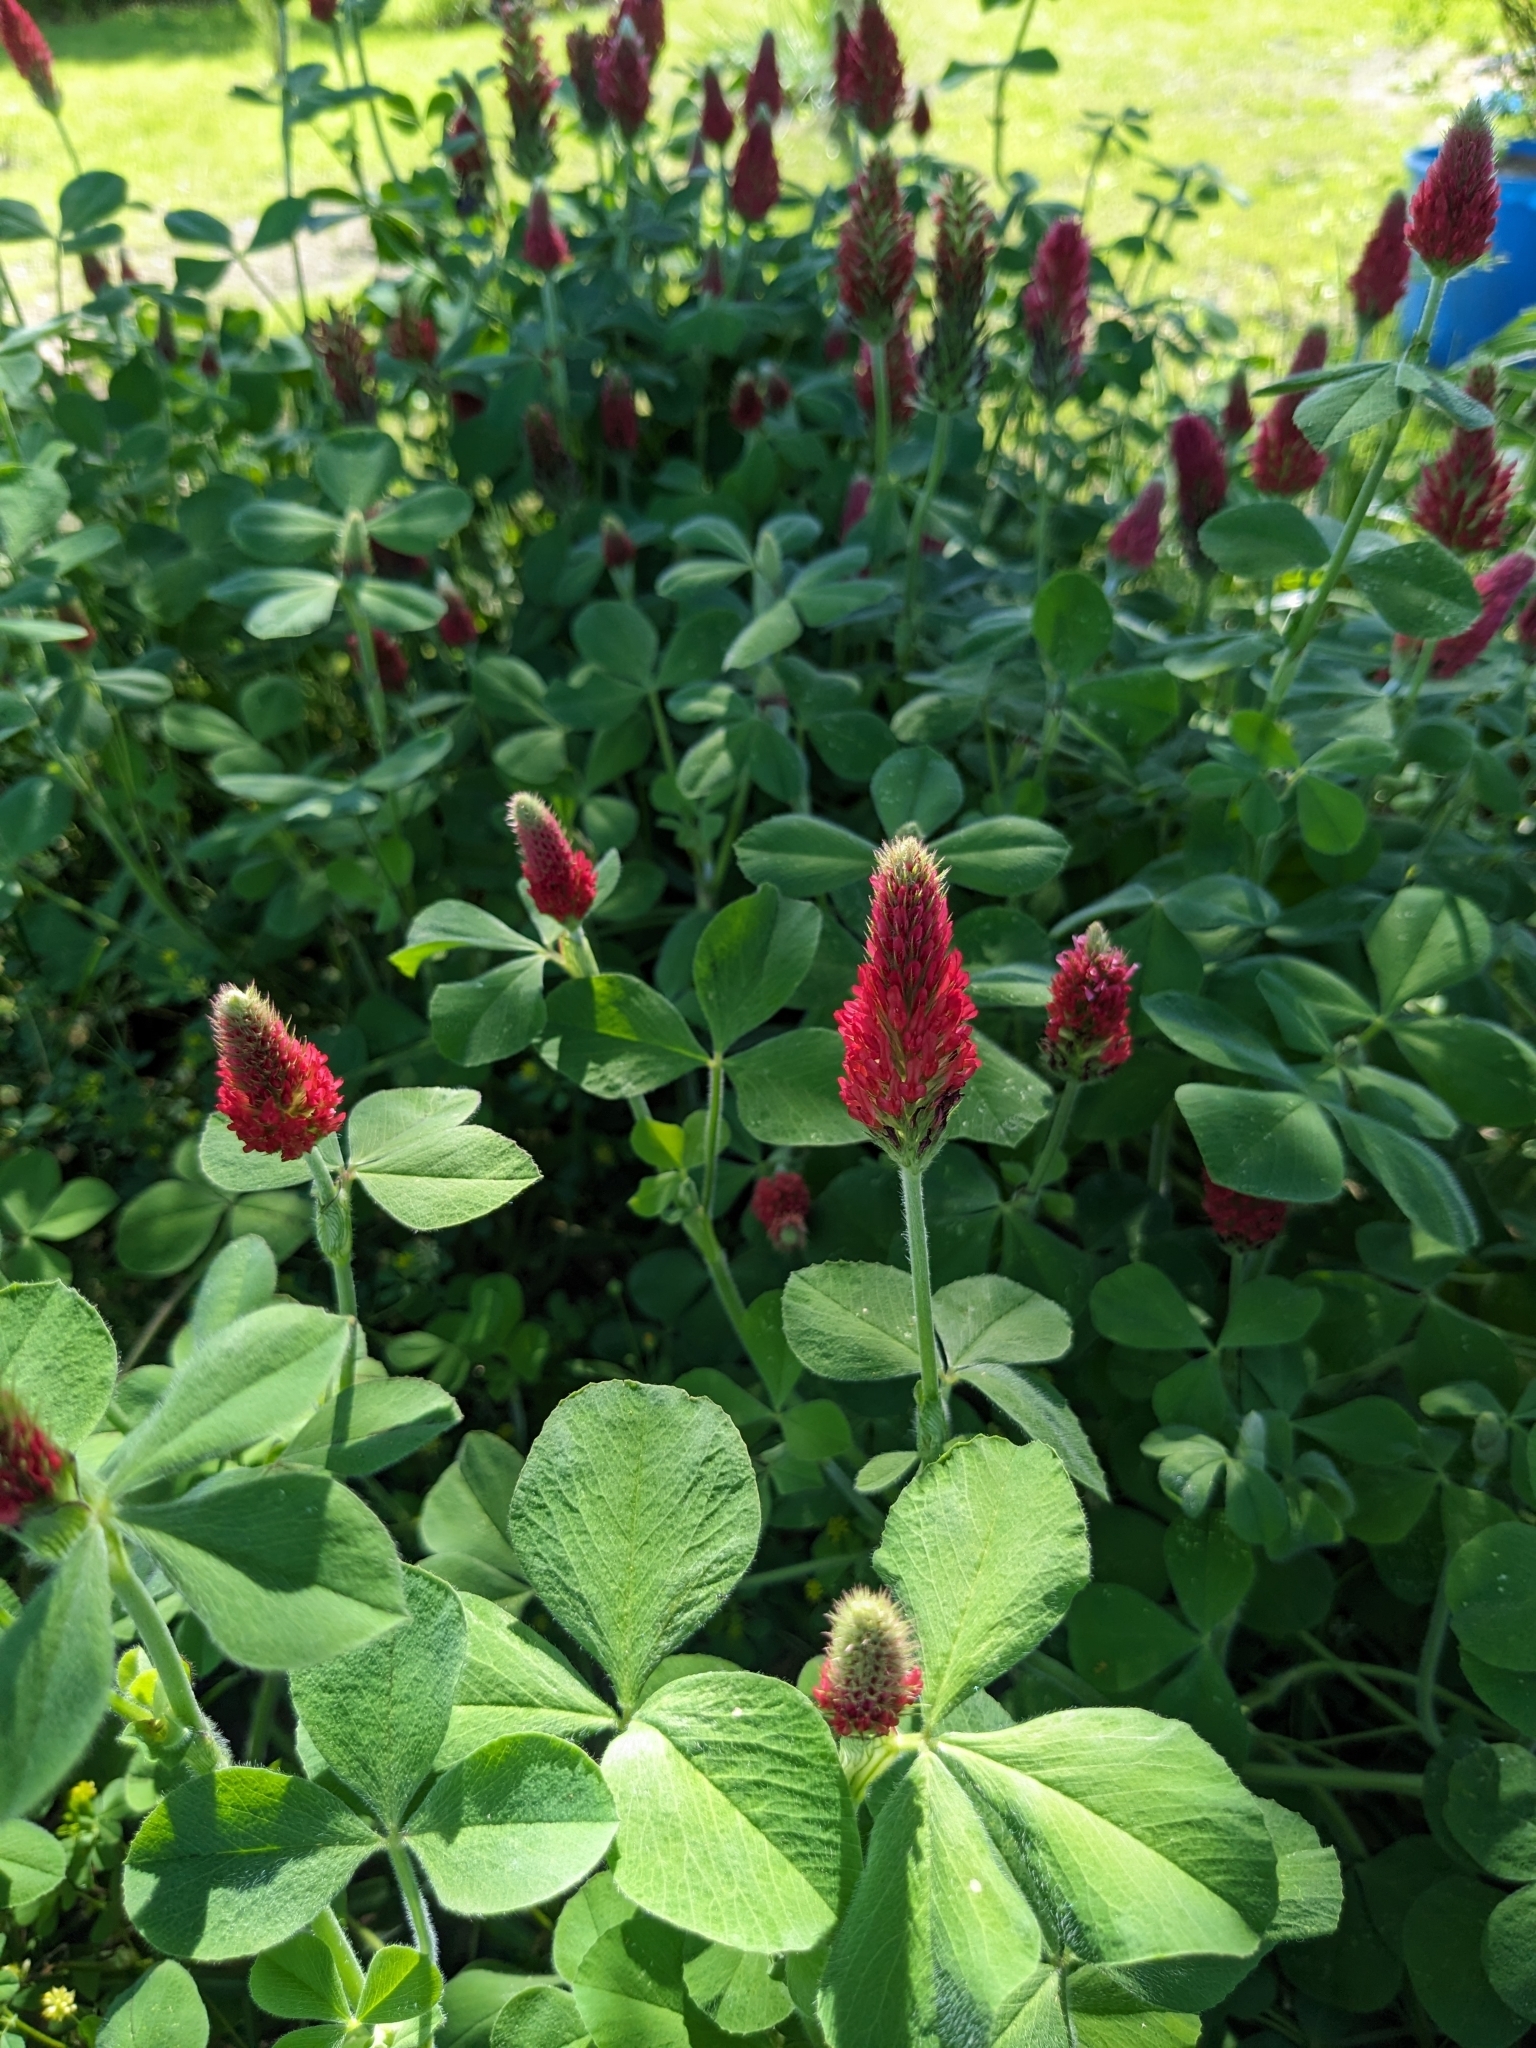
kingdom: Plantae
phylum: Tracheophyta
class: Magnoliopsida
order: Fabales
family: Fabaceae
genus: Trifolium
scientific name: Trifolium incarnatum
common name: Crimson clover
